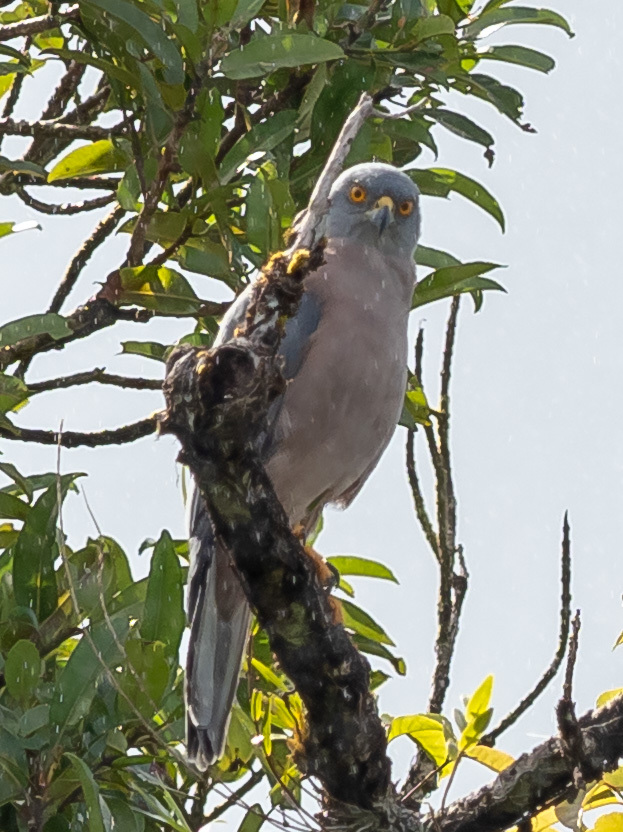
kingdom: Animalia
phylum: Chordata
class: Aves
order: Accipitriformes
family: Accipitridae
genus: Accipiter
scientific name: Accipiter rufitorques
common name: Fiji goshawk
